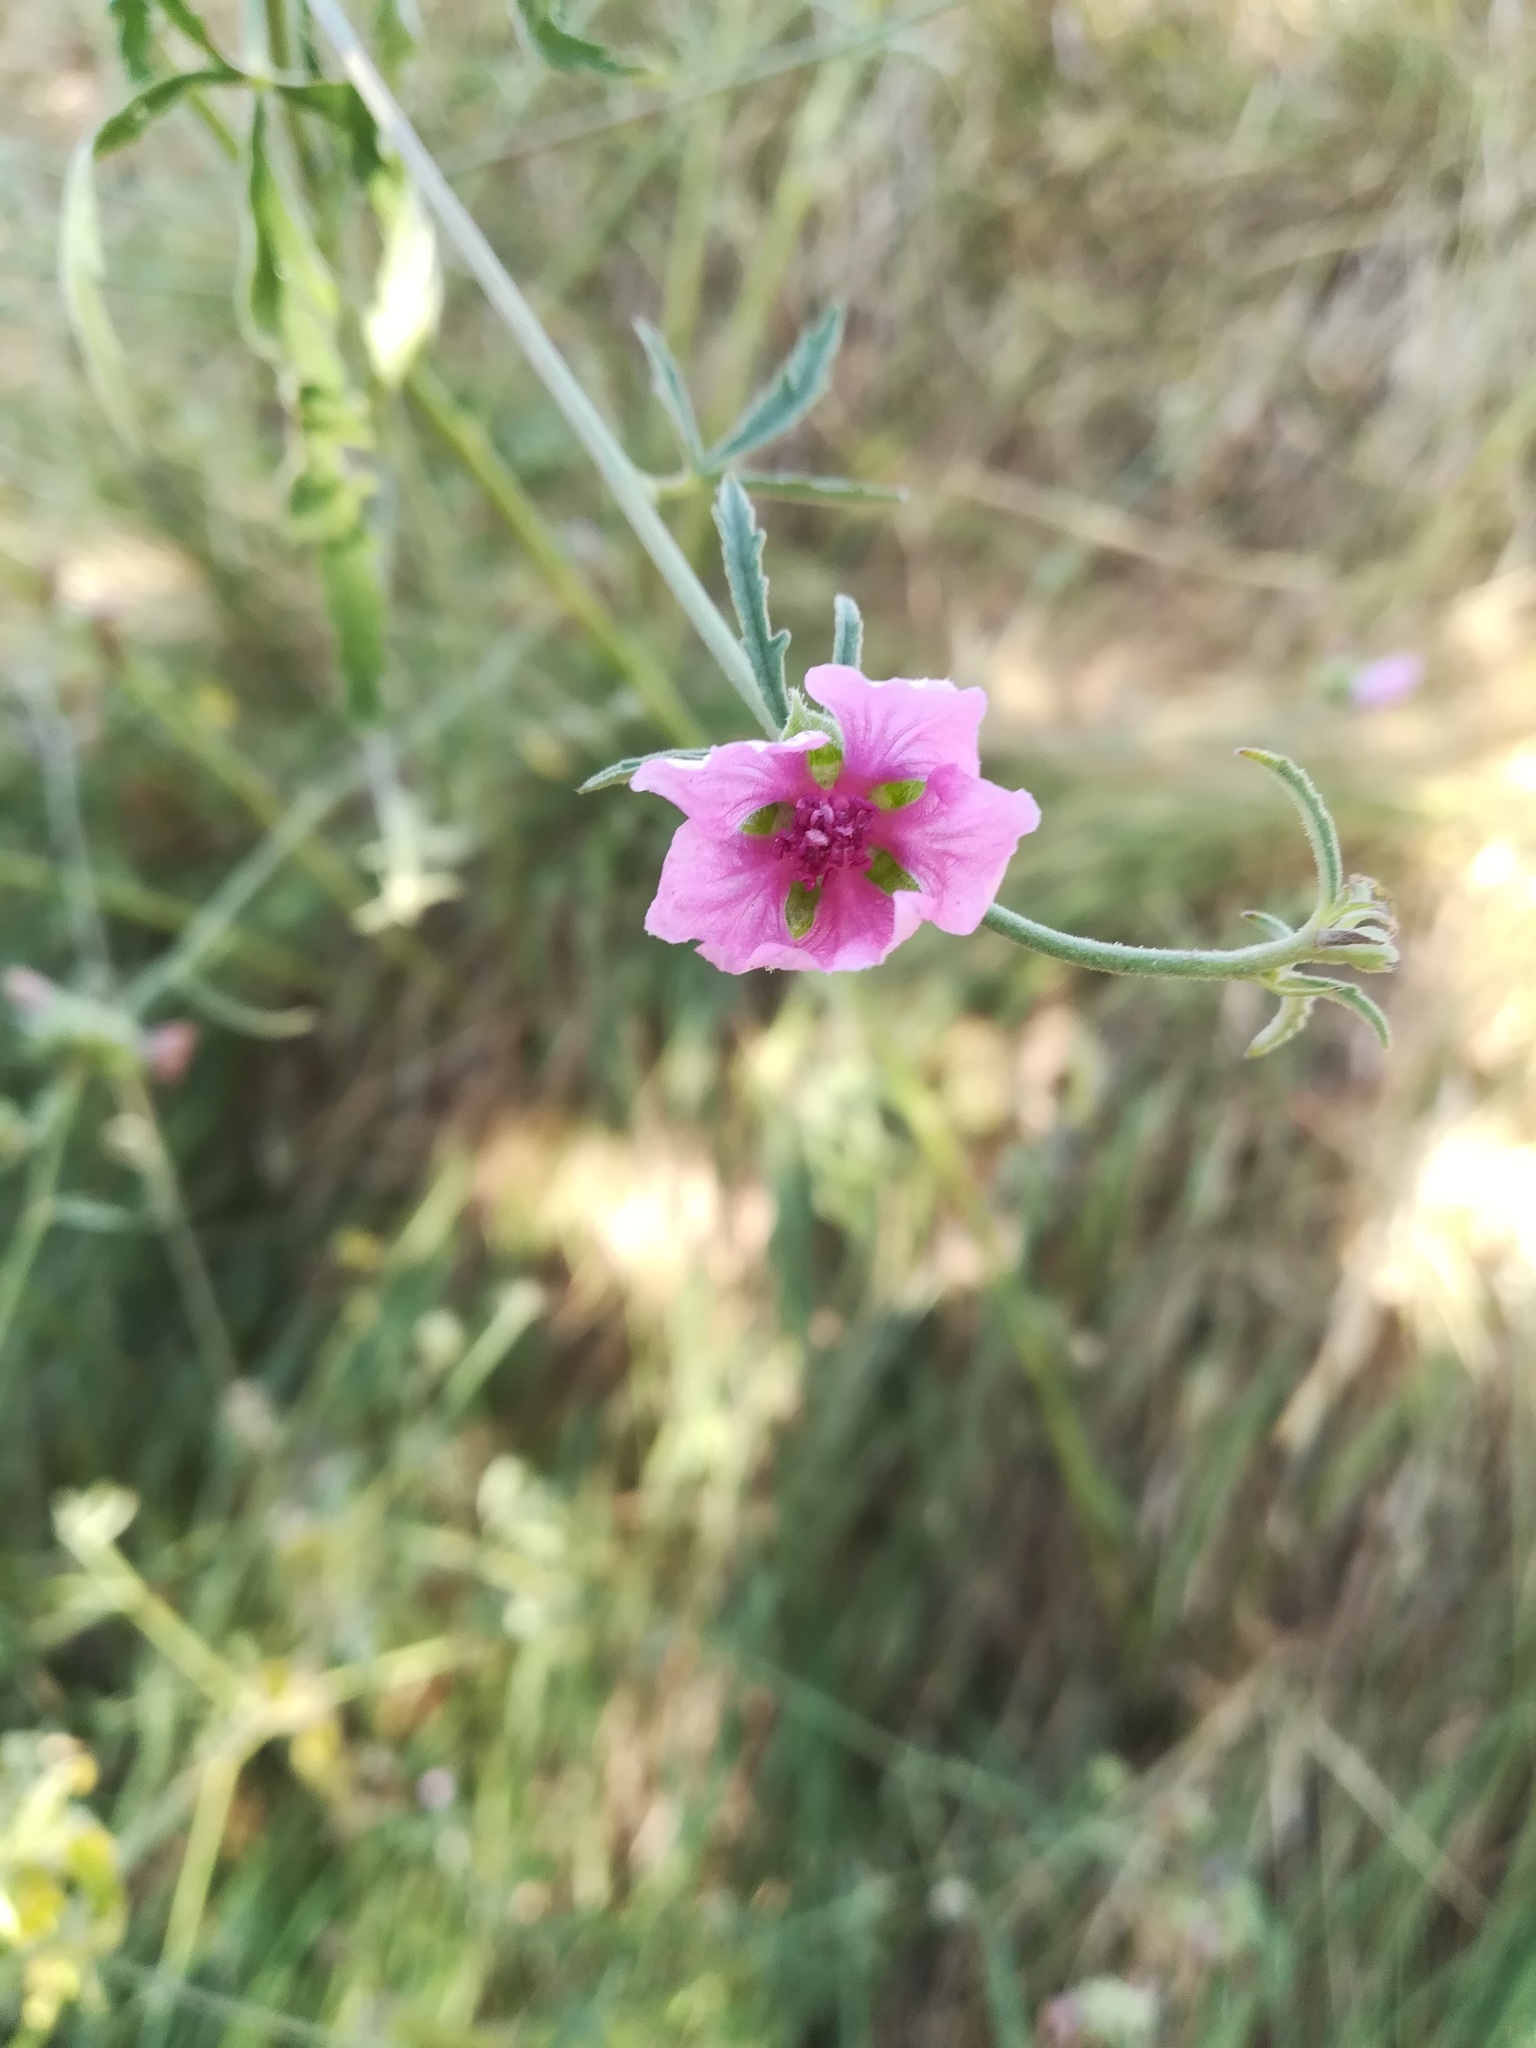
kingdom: Plantae
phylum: Tracheophyta
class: Magnoliopsida
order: Malvales
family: Malvaceae
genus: Althaea
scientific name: Althaea cannabina
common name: Palm-leaf marshmallow
